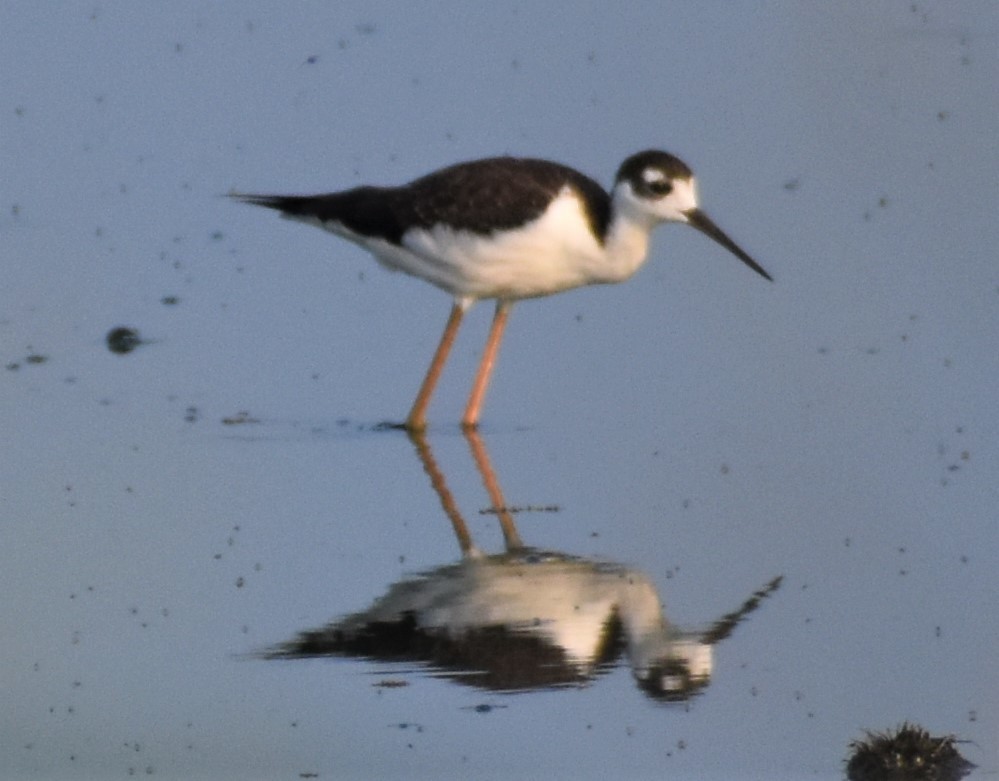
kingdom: Animalia
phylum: Chordata
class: Aves
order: Charadriiformes
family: Recurvirostridae
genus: Himantopus
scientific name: Himantopus mexicanus
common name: Black-necked stilt
